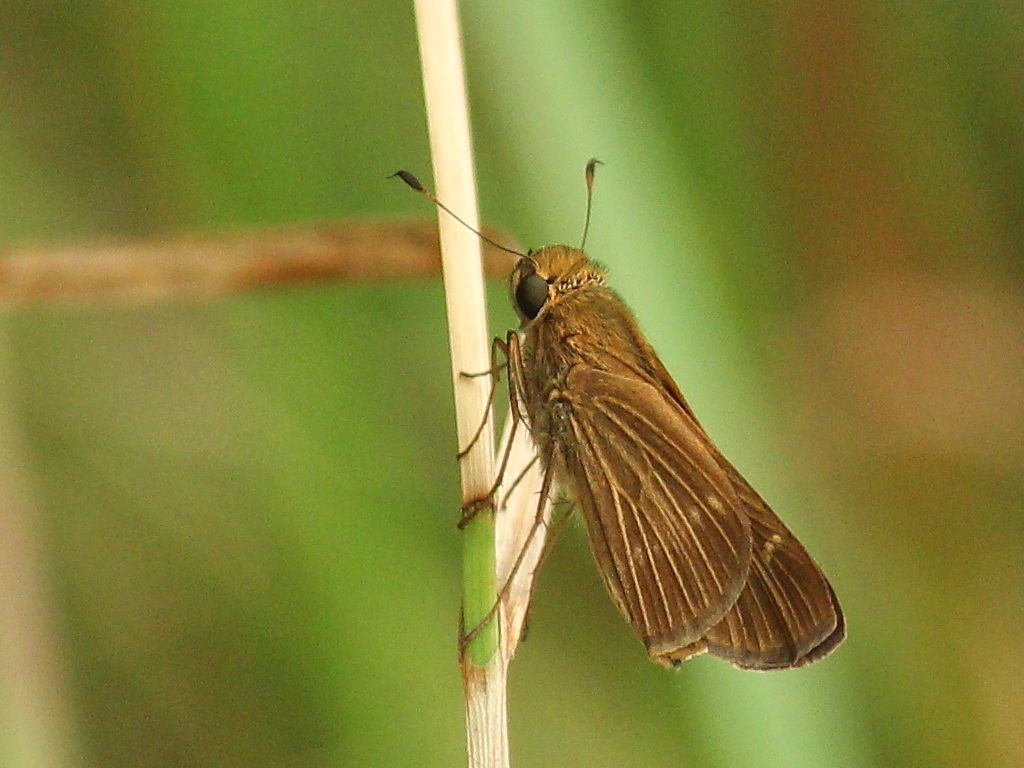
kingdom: Animalia
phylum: Arthropoda
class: Insecta
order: Lepidoptera
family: Hesperiidae
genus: Panoquina
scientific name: Panoquina ocola
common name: Ocola skipper
